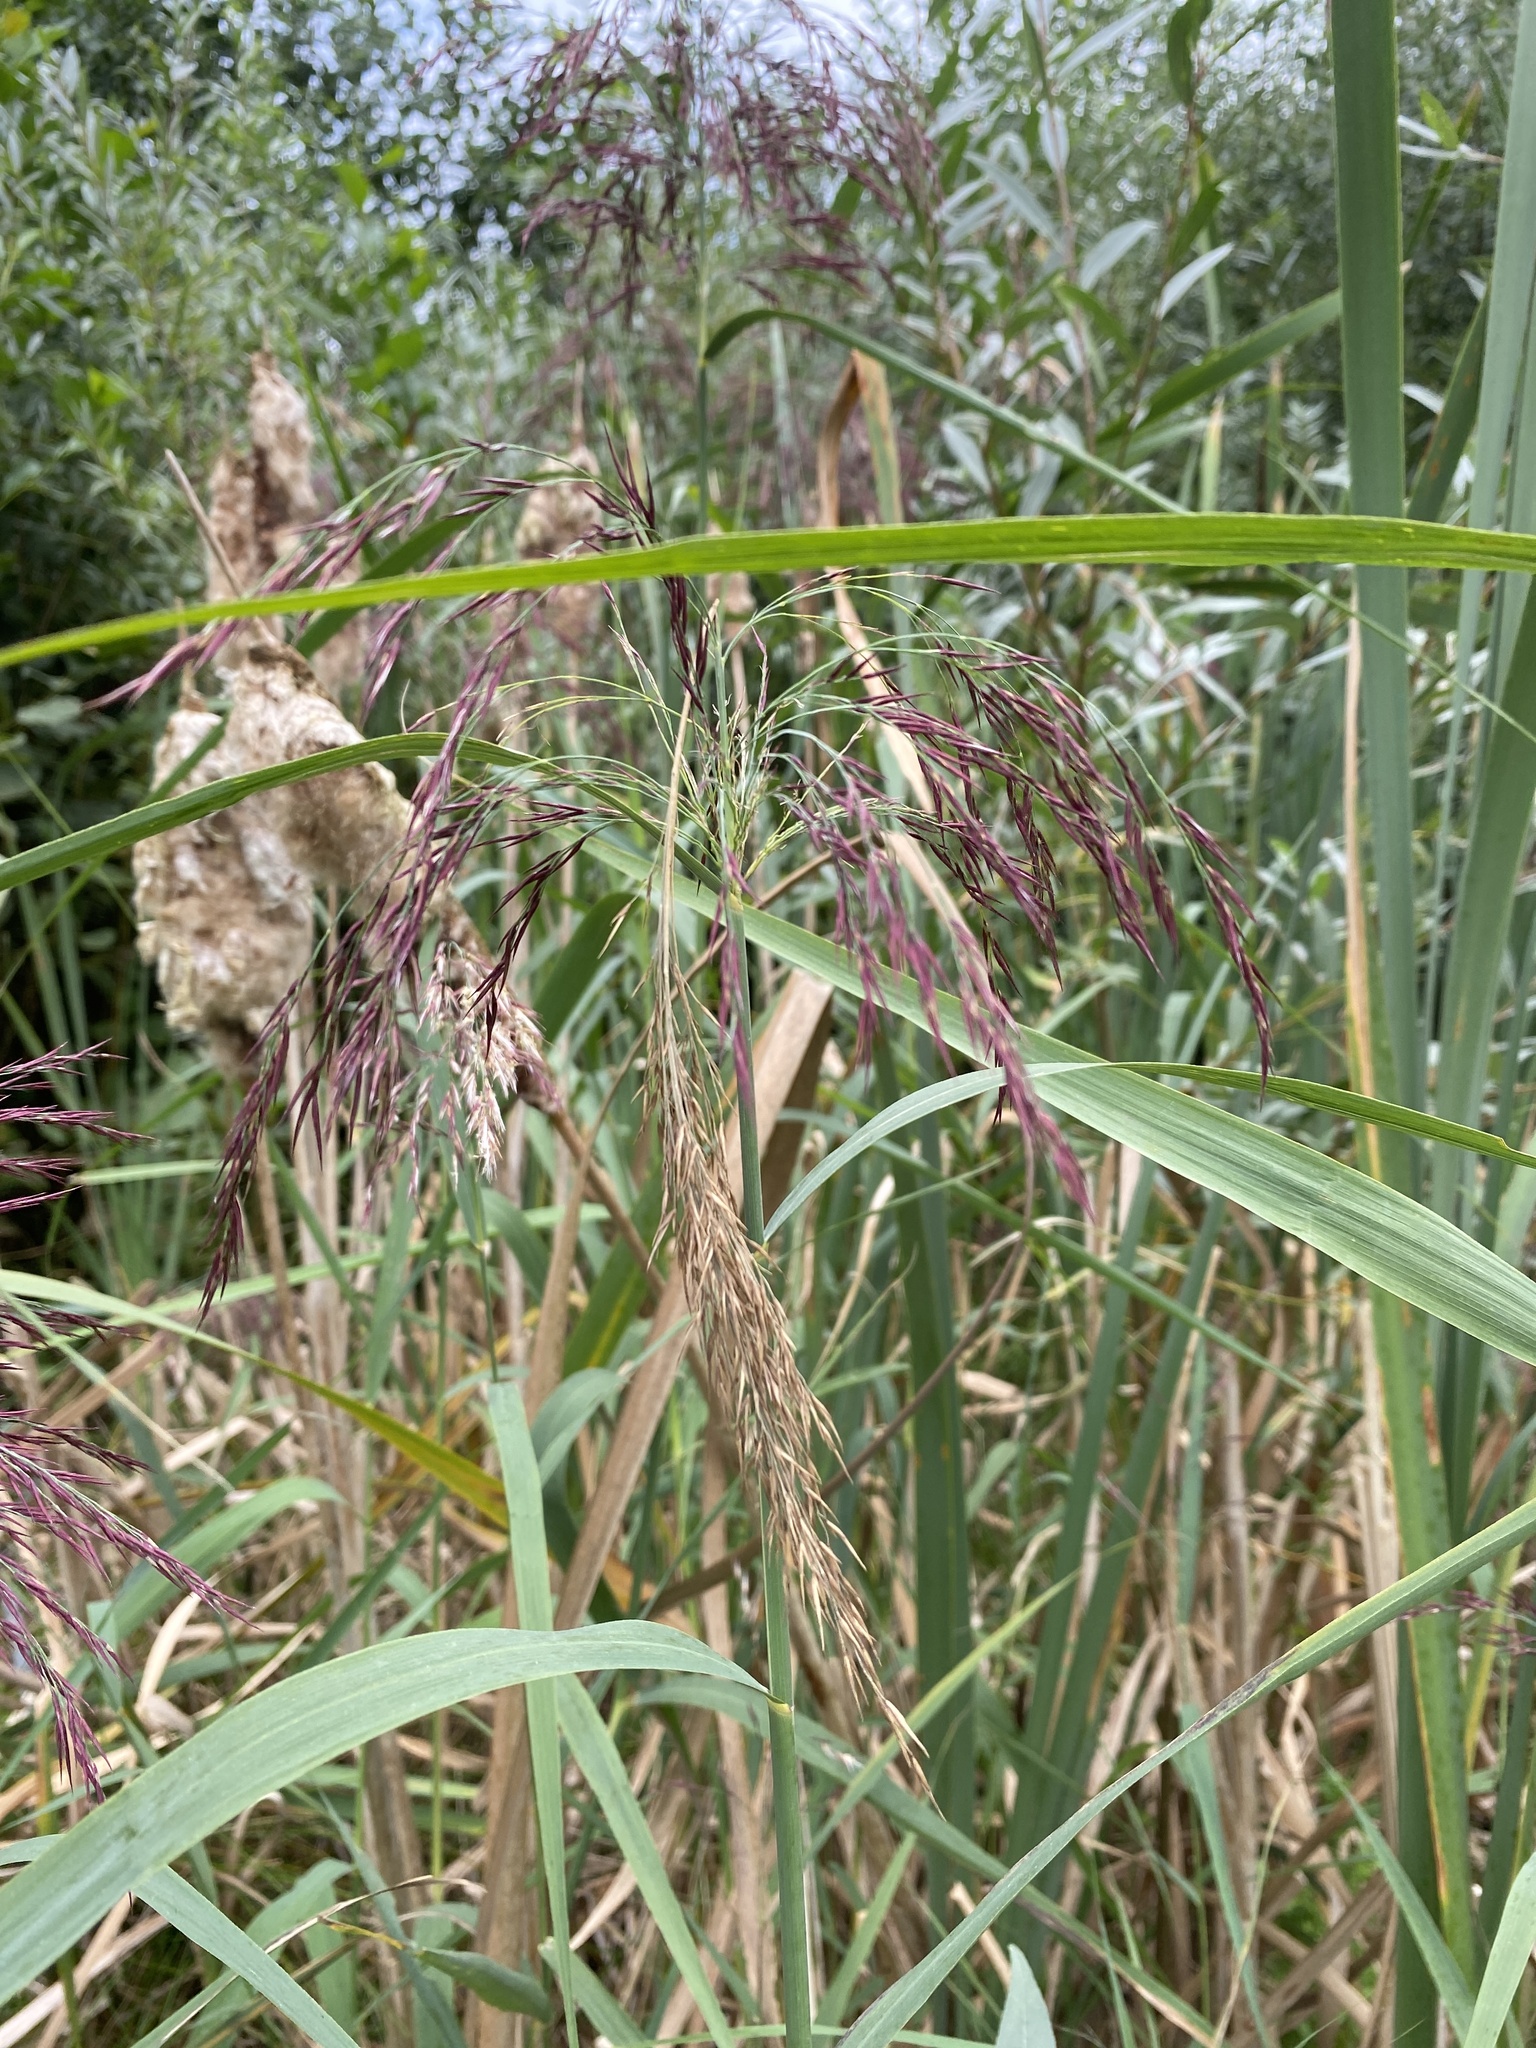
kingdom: Plantae
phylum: Tracheophyta
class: Liliopsida
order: Poales
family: Poaceae
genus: Phragmites
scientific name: Phragmites australis
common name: Common reed
